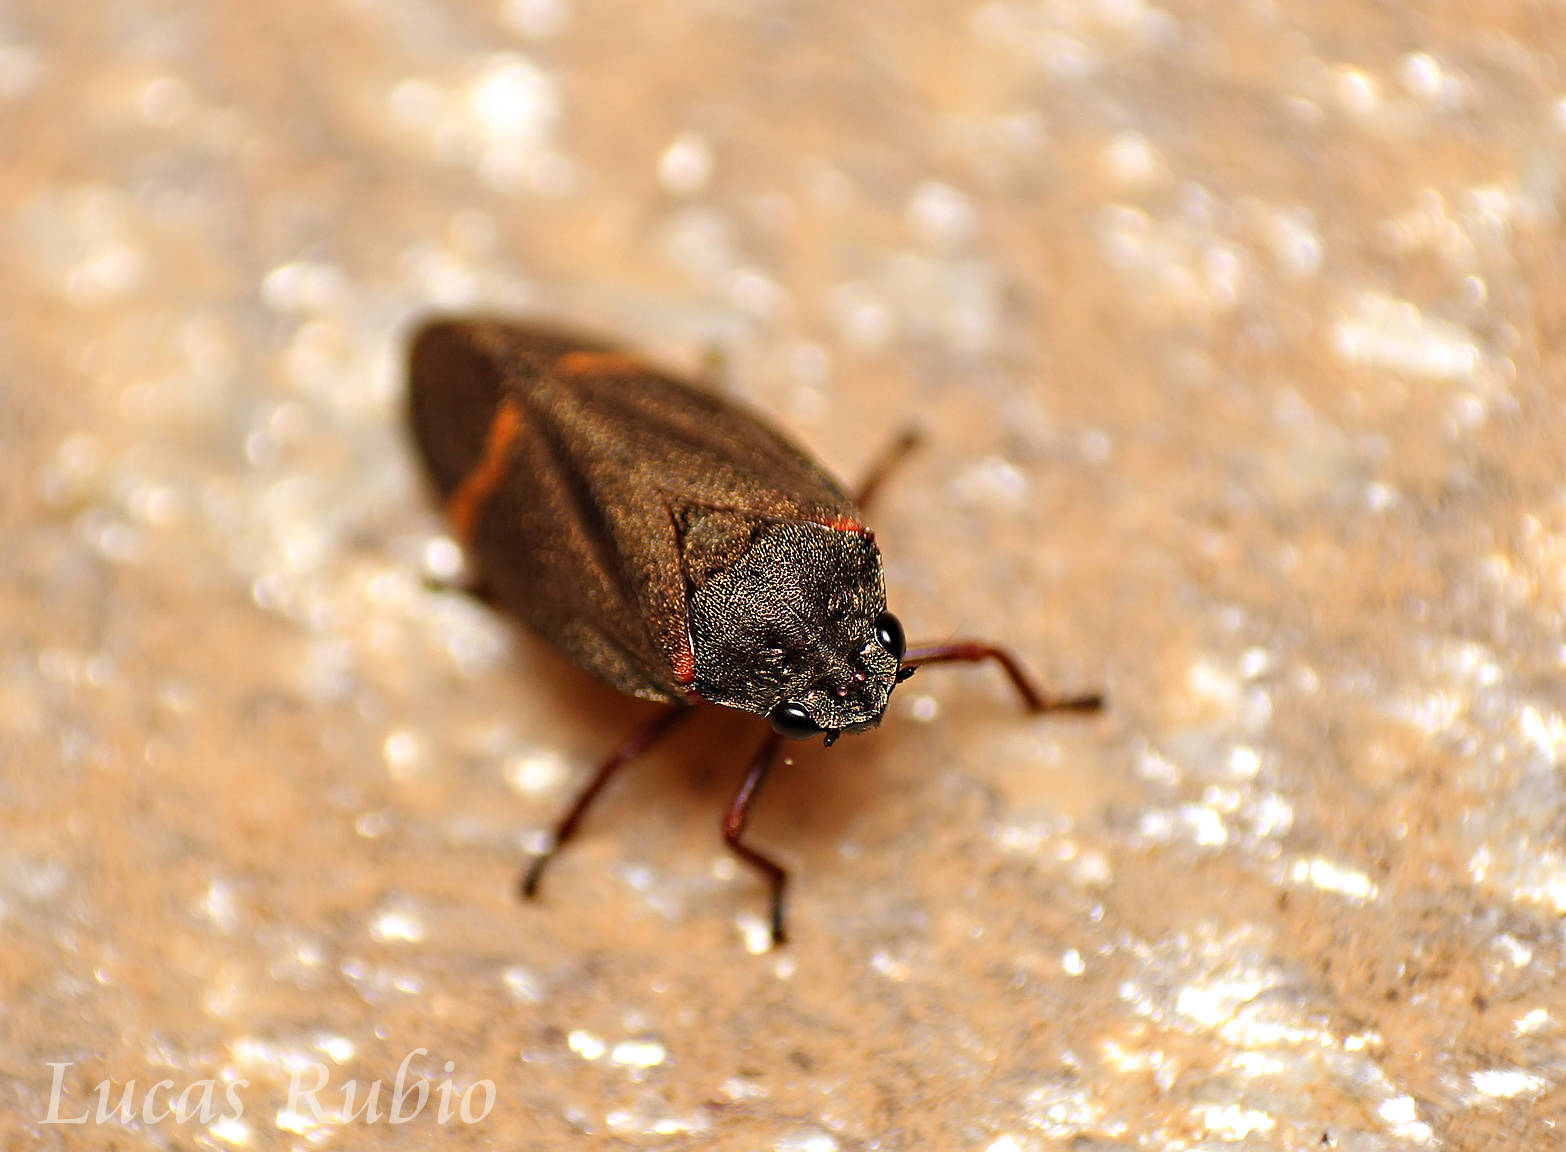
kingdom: Animalia
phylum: Arthropoda
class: Insecta
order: Hemiptera
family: Cercopidae
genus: Deois
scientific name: Deois schach
